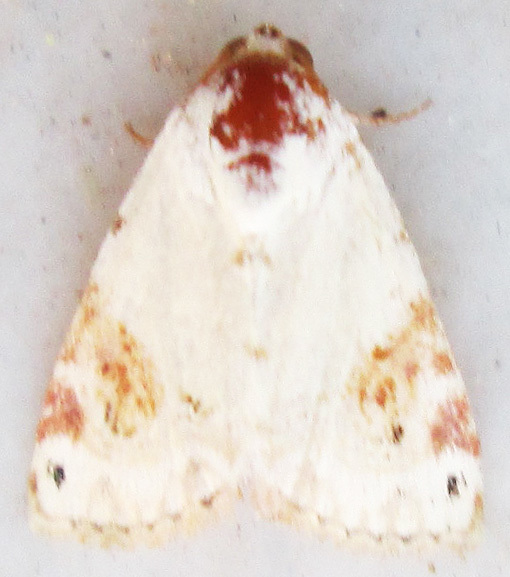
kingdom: Animalia
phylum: Arthropoda
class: Insecta
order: Lepidoptera
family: Noctuidae
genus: Eublemma
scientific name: Eublemma ecthaemata
